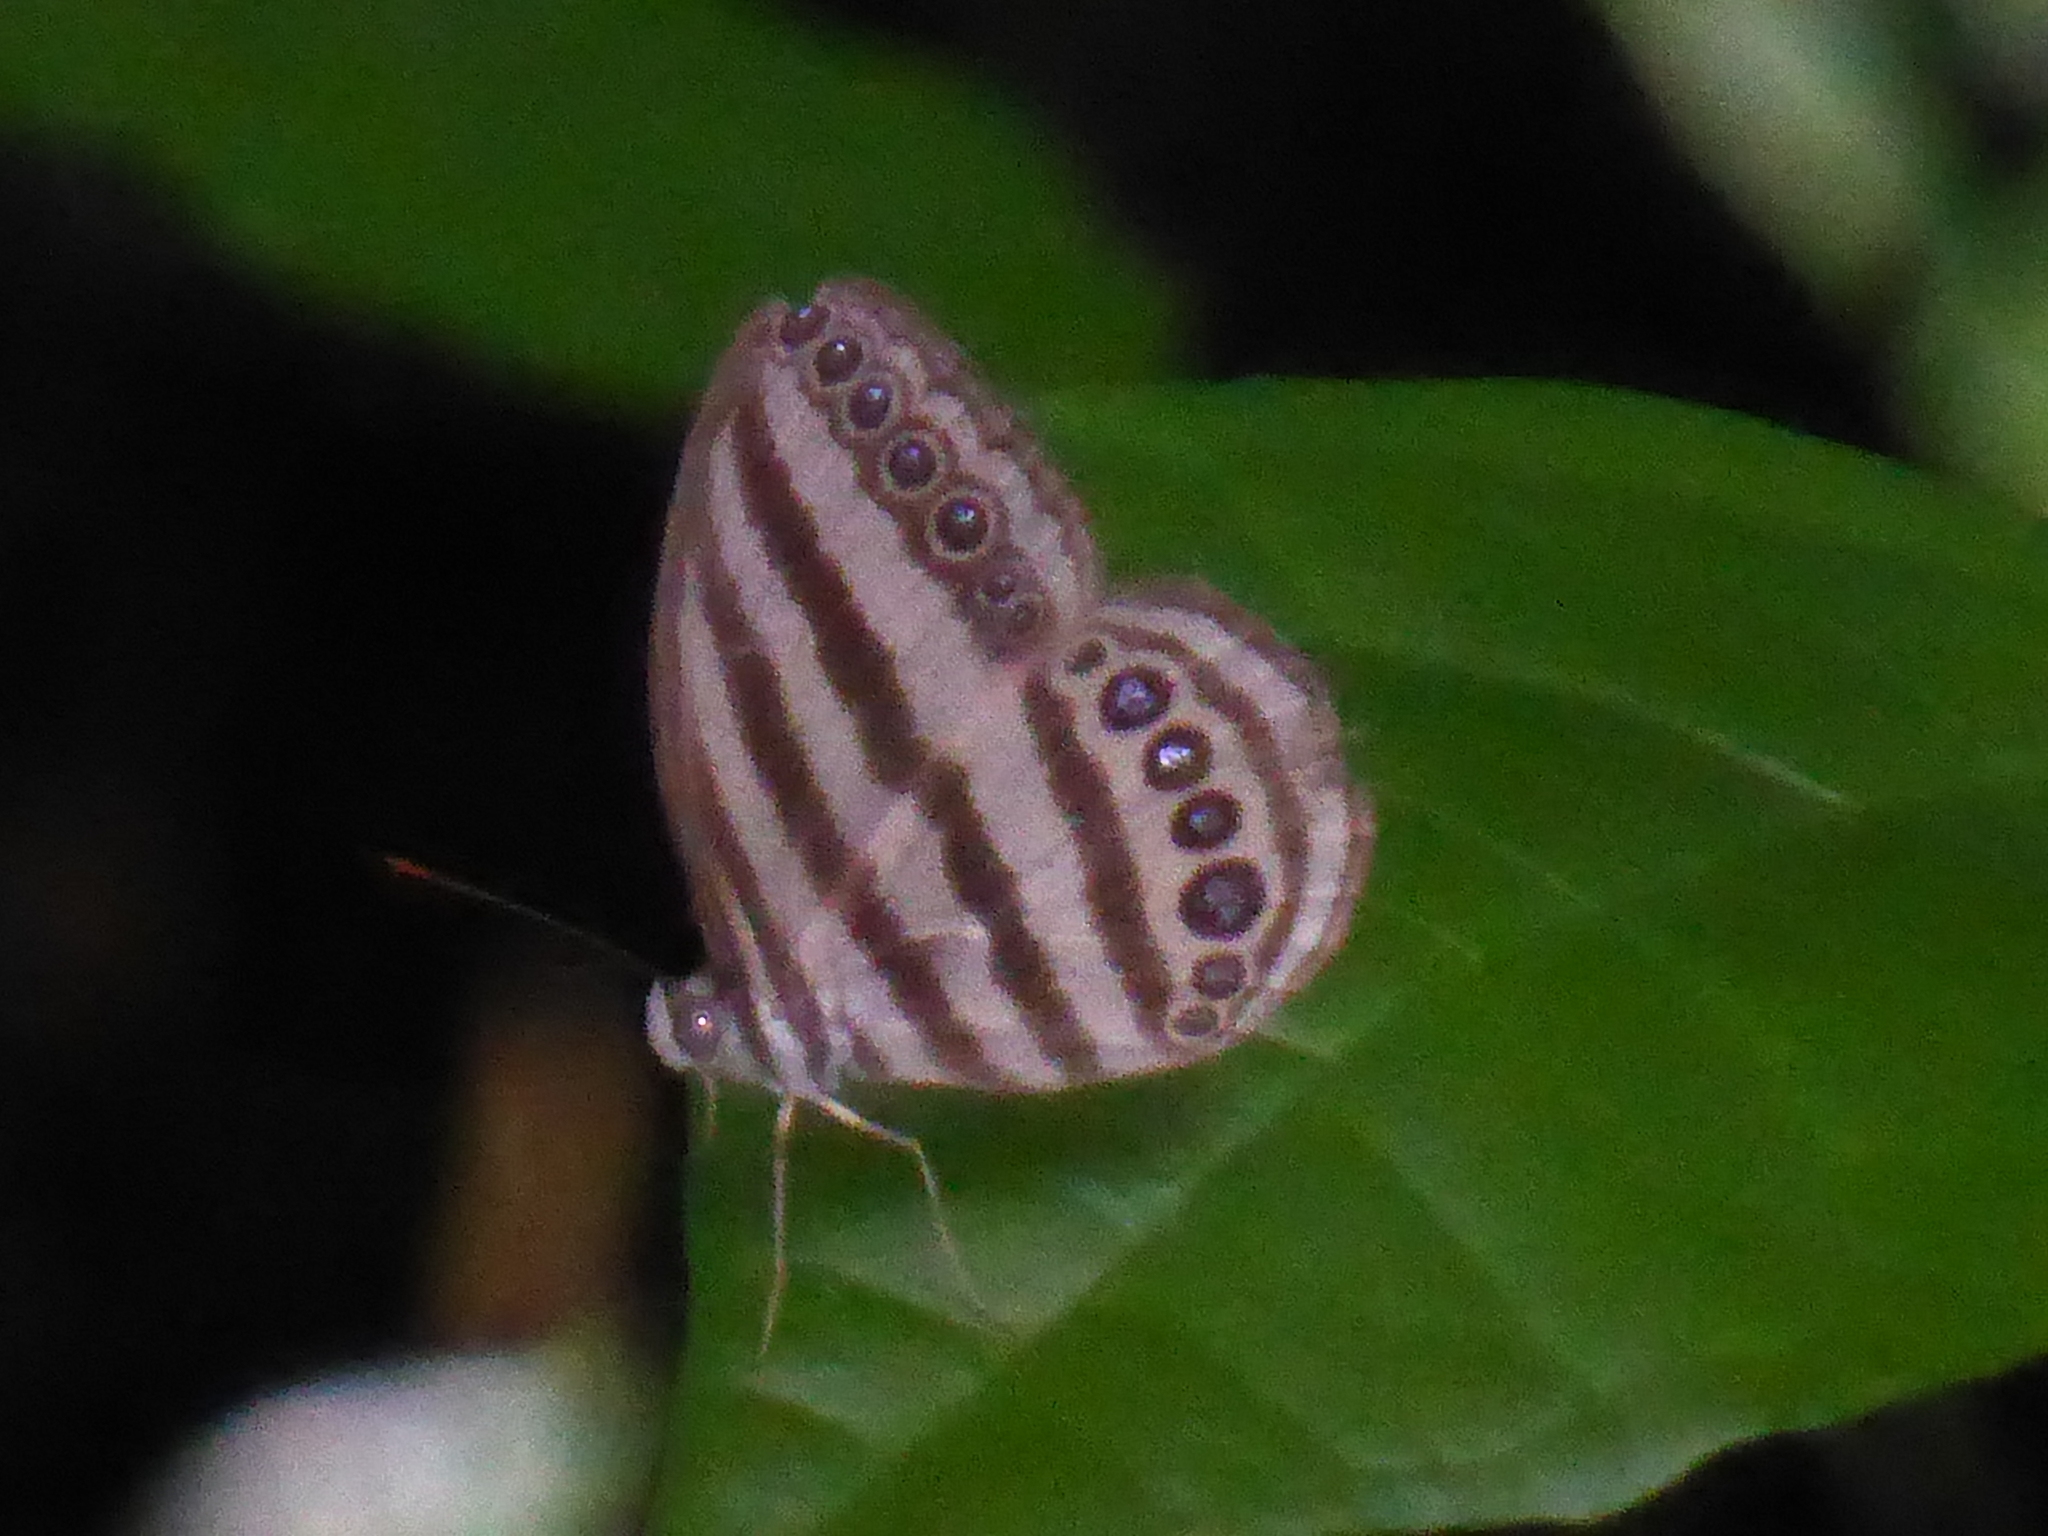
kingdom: Animalia
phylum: Arthropoda
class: Insecta
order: Lepidoptera
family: Nymphalidae
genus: Ragadia
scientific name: Ragadia makuta
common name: Striped ringlet
